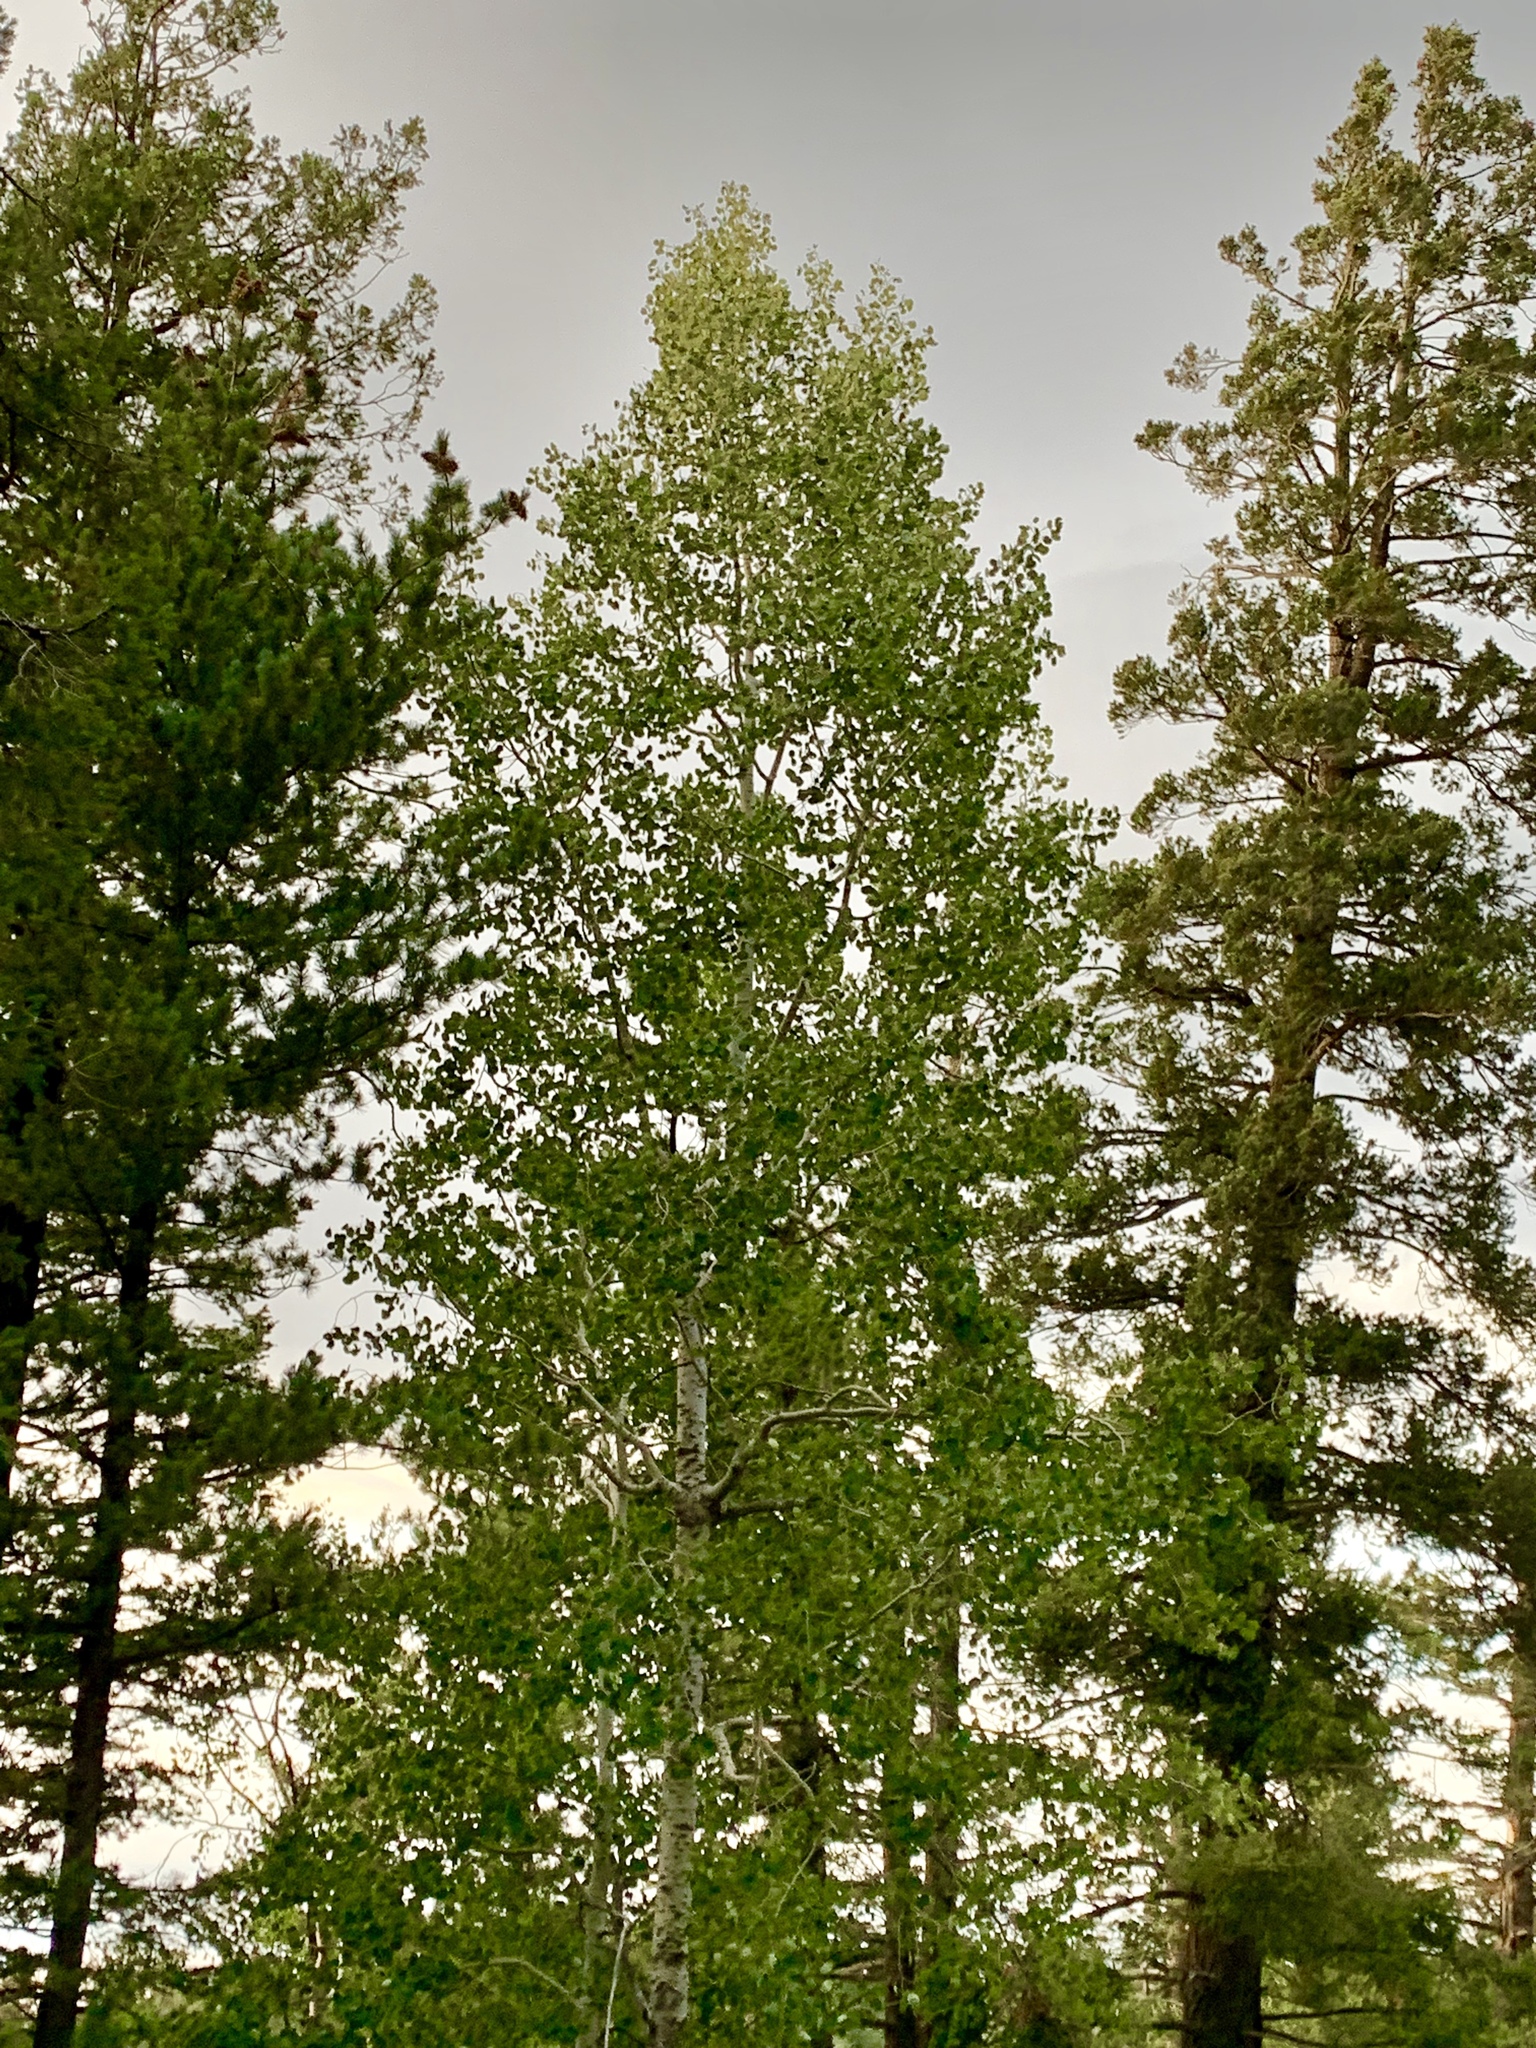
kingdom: Plantae
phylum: Tracheophyta
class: Magnoliopsida
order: Malpighiales
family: Salicaceae
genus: Populus
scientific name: Populus tremuloides
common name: Quaking aspen
